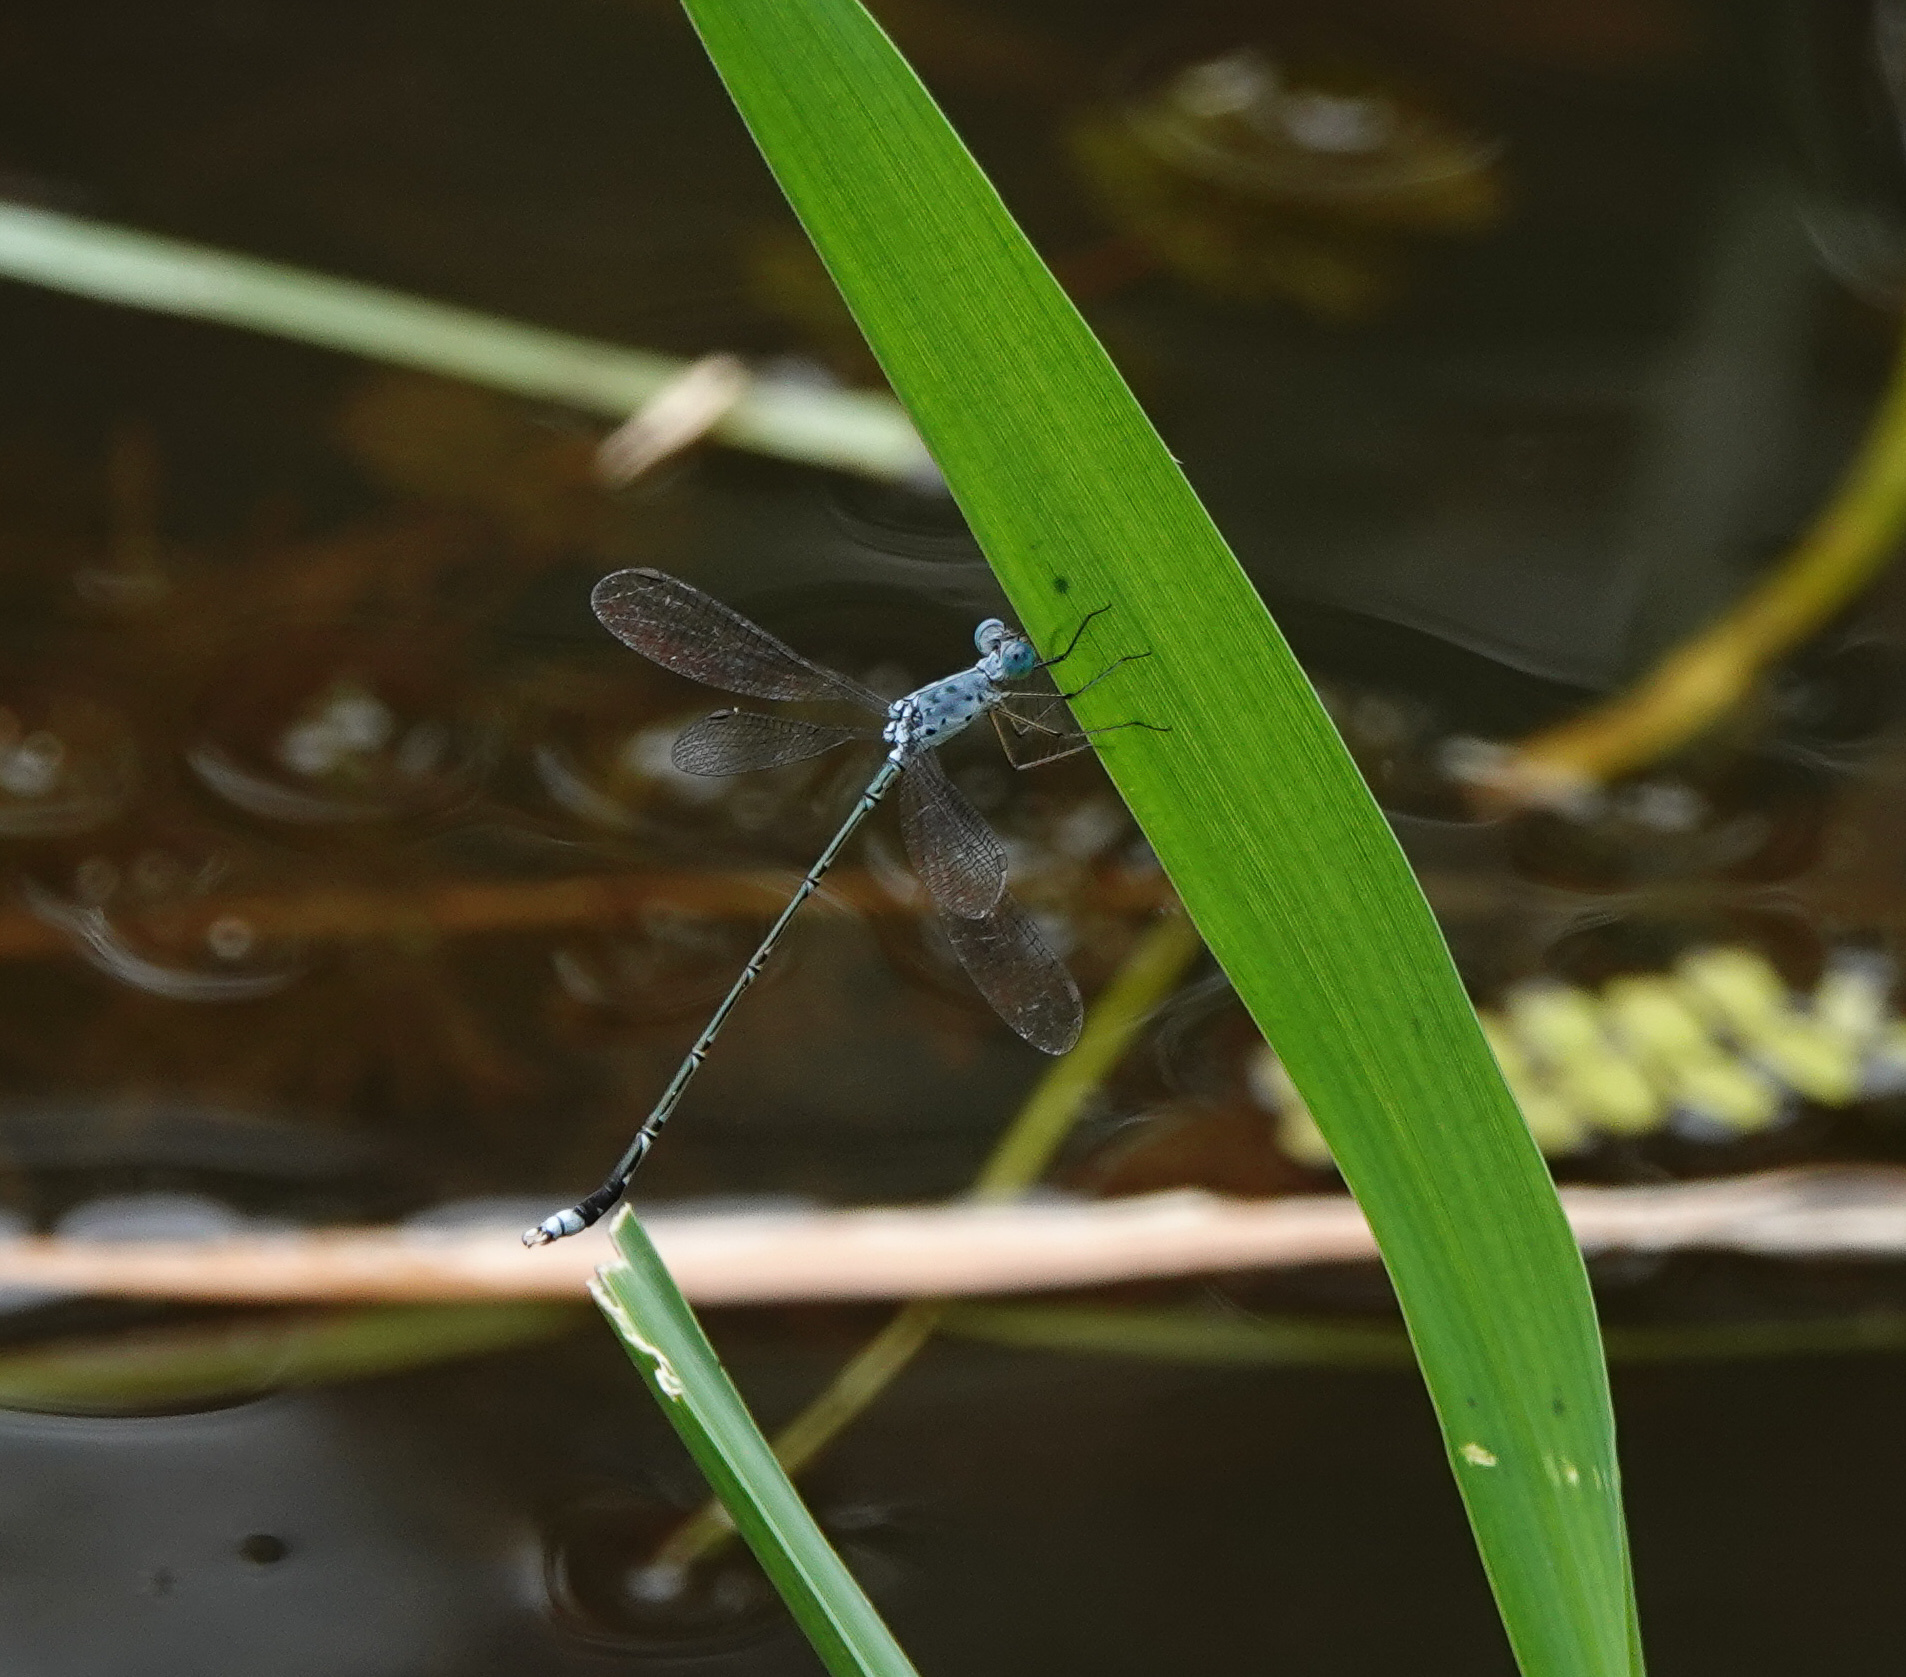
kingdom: Animalia
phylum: Arthropoda
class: Insecta
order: Odonata
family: Lestidae
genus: Lestes
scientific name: Lestes praemorsus
